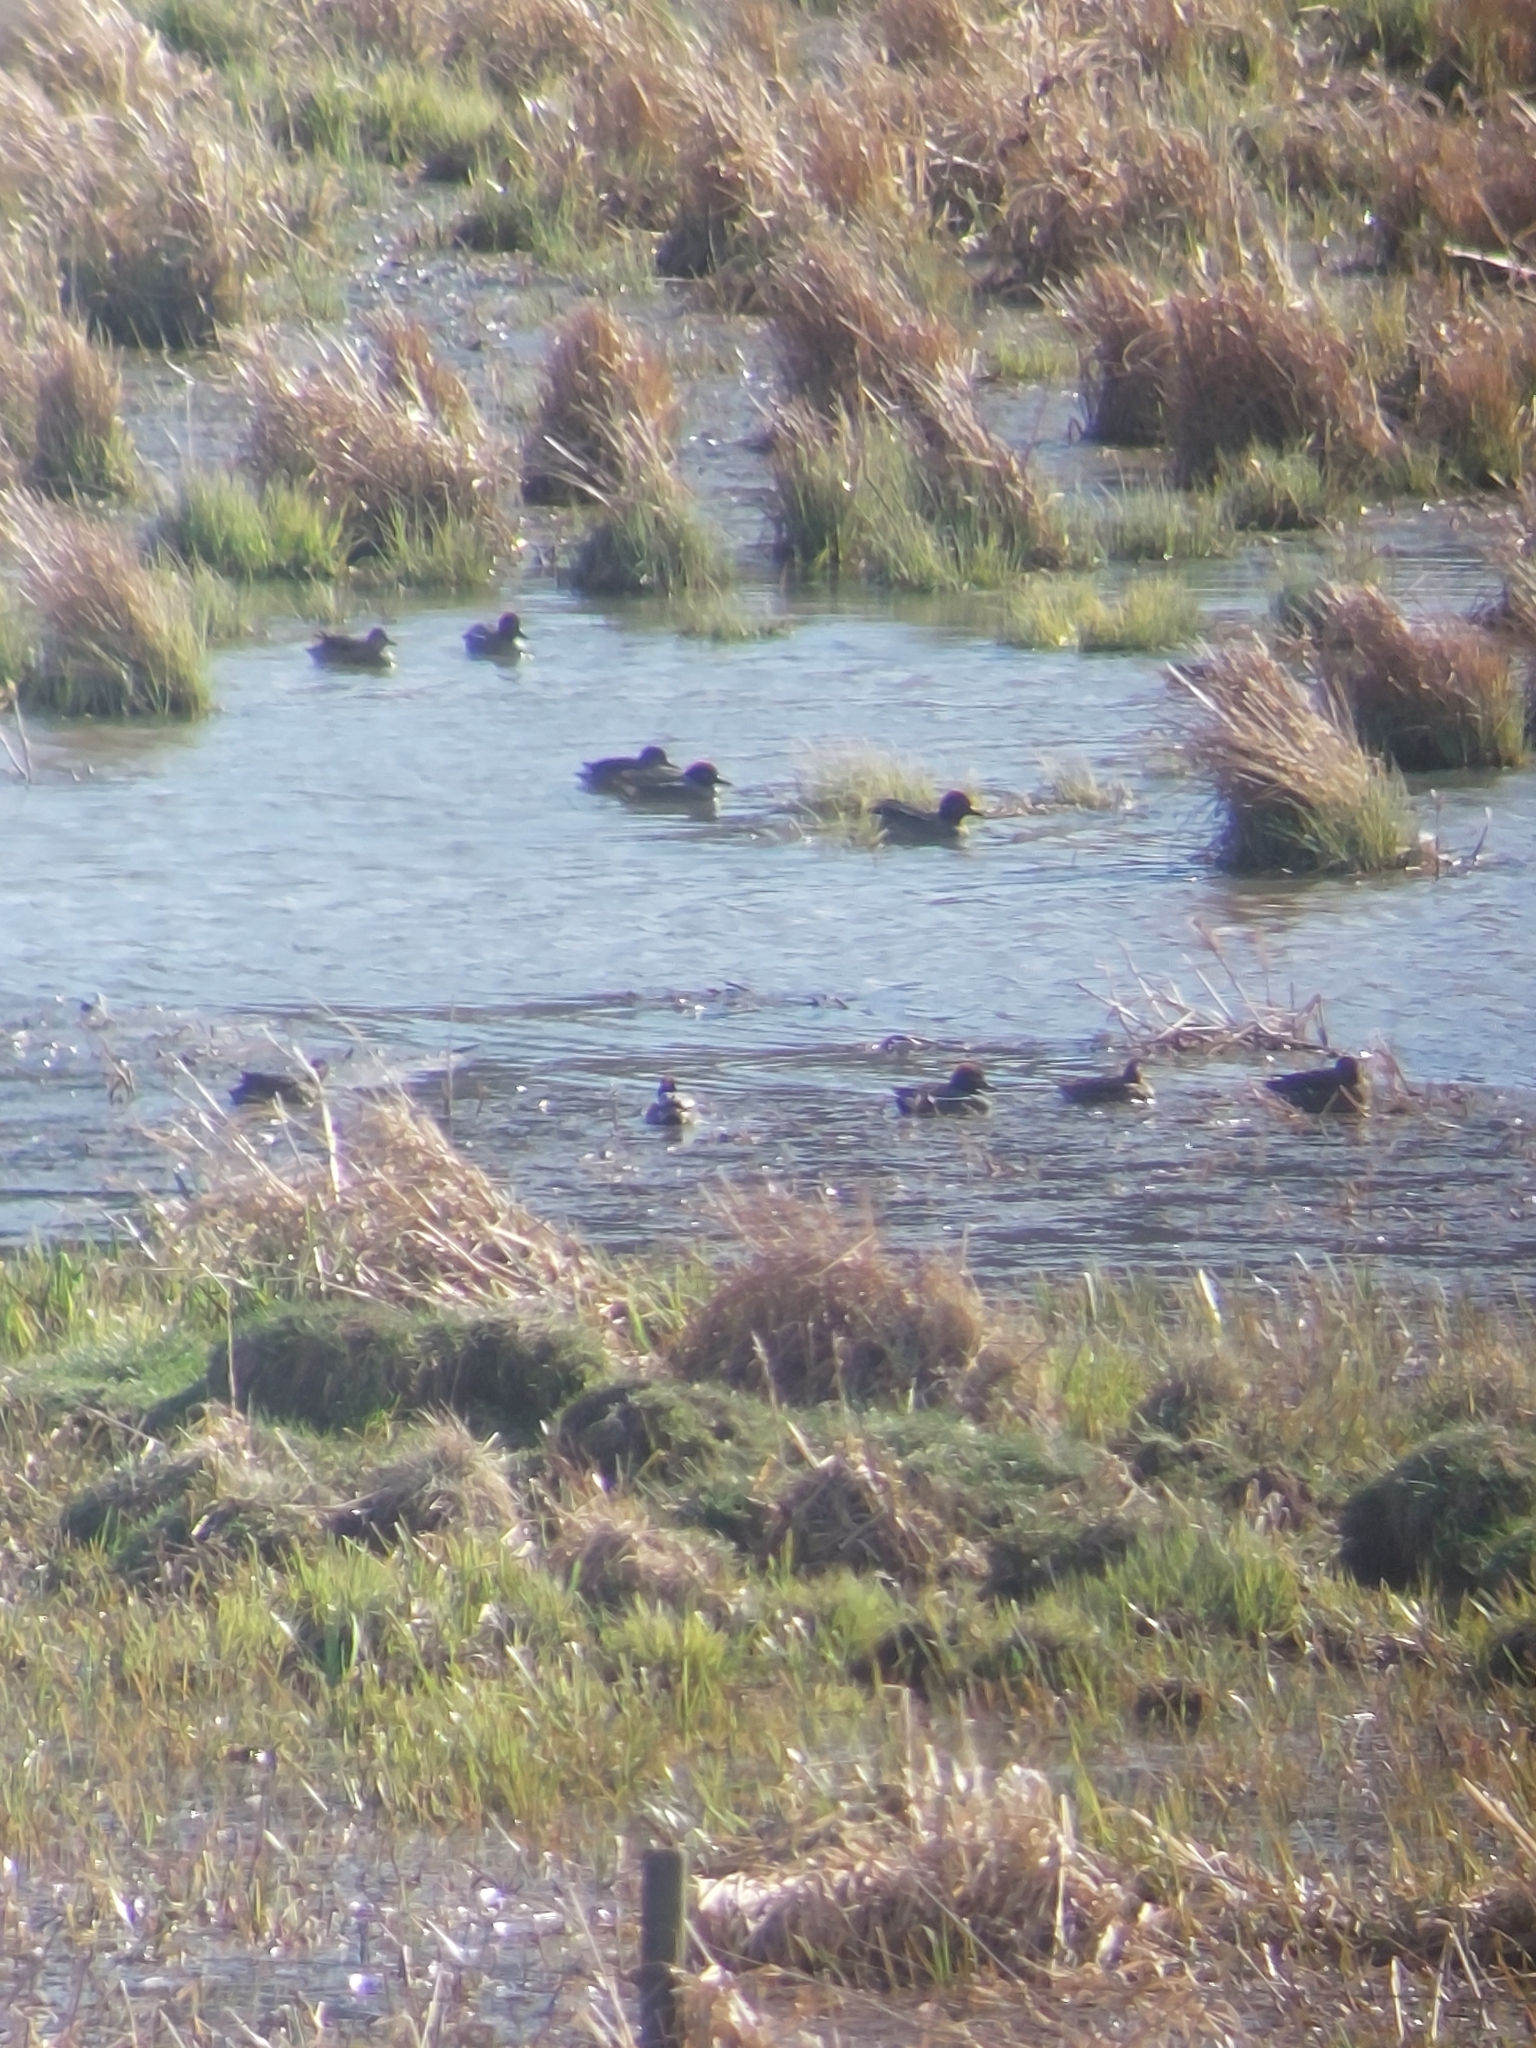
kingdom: Animalia
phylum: Chordata
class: Aves
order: Anseriformes
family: Anatidae
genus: Anas
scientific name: Anas crecca
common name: Eurasian teal
